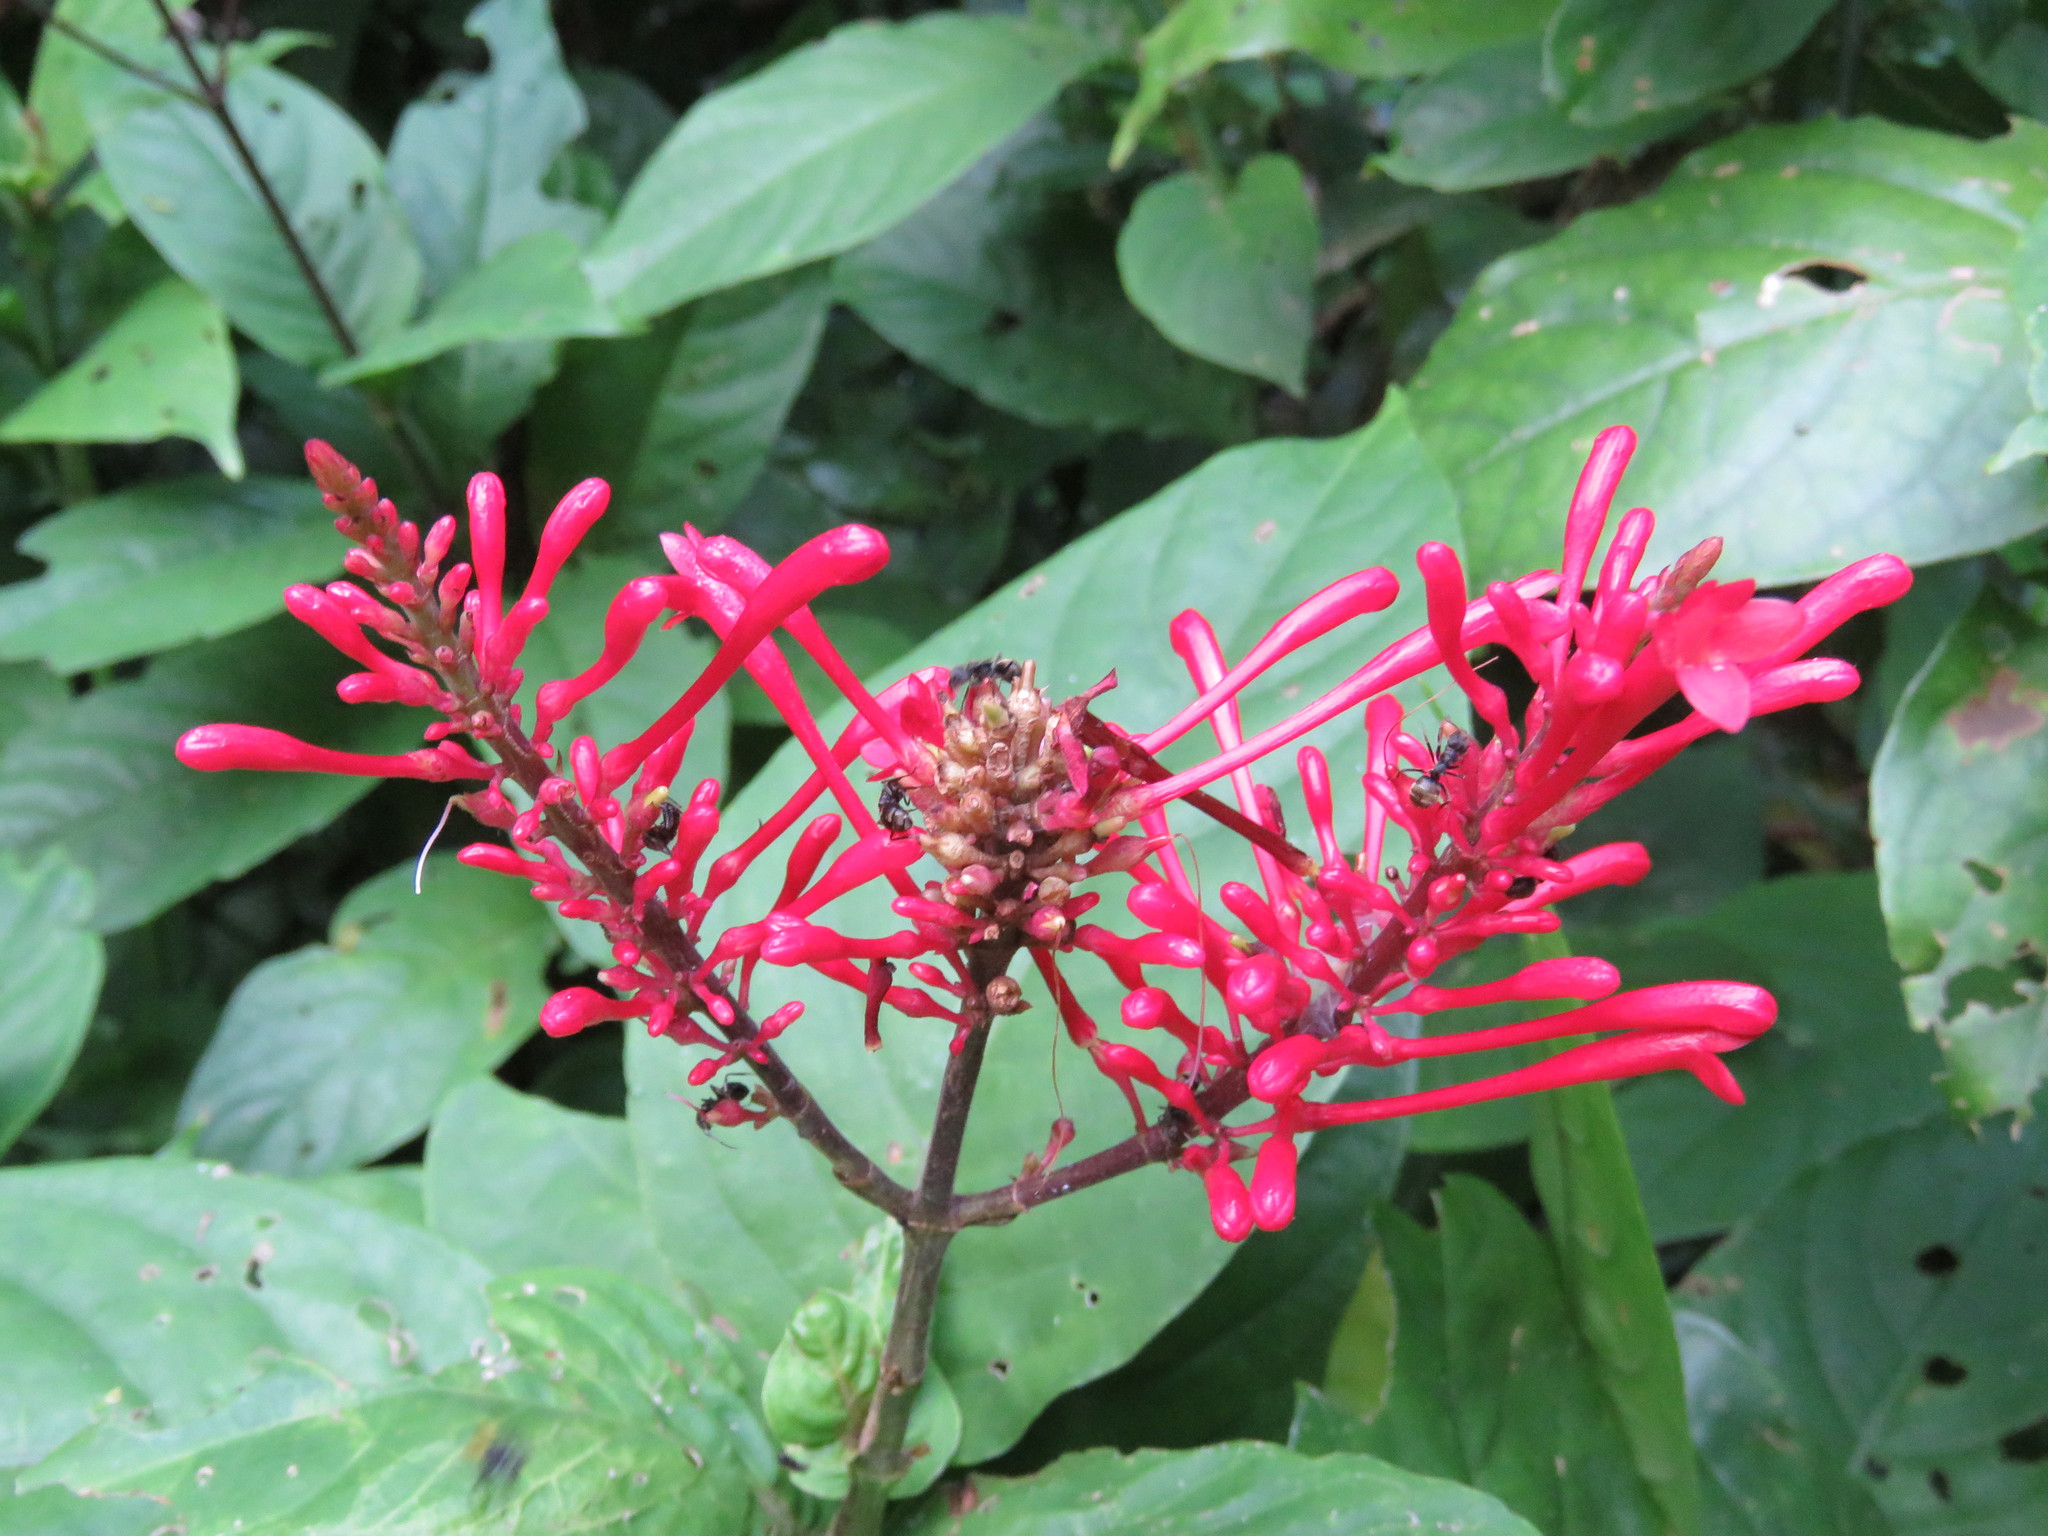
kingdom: Plantae
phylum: Tracheophyta
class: Magnoliopsida
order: Lamiales
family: Acanthaceae
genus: Odontonema
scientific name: Odontonema cuspidatum
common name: Mottled toothedthread
